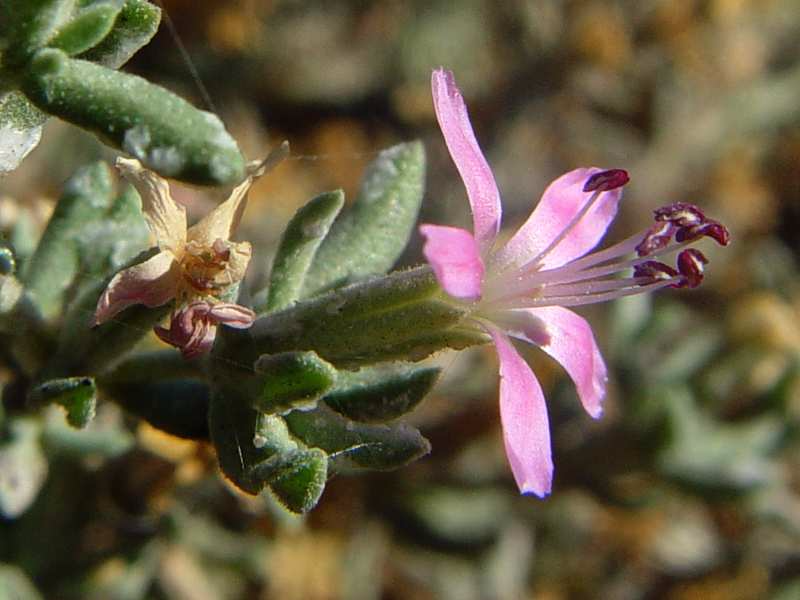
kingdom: Plantae
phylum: Tracheophyta
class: Magnoliopsida
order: Caryophyllales
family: Frankeniaceae
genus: Frankenia
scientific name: Frankenia salina
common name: Alkali seaheath
